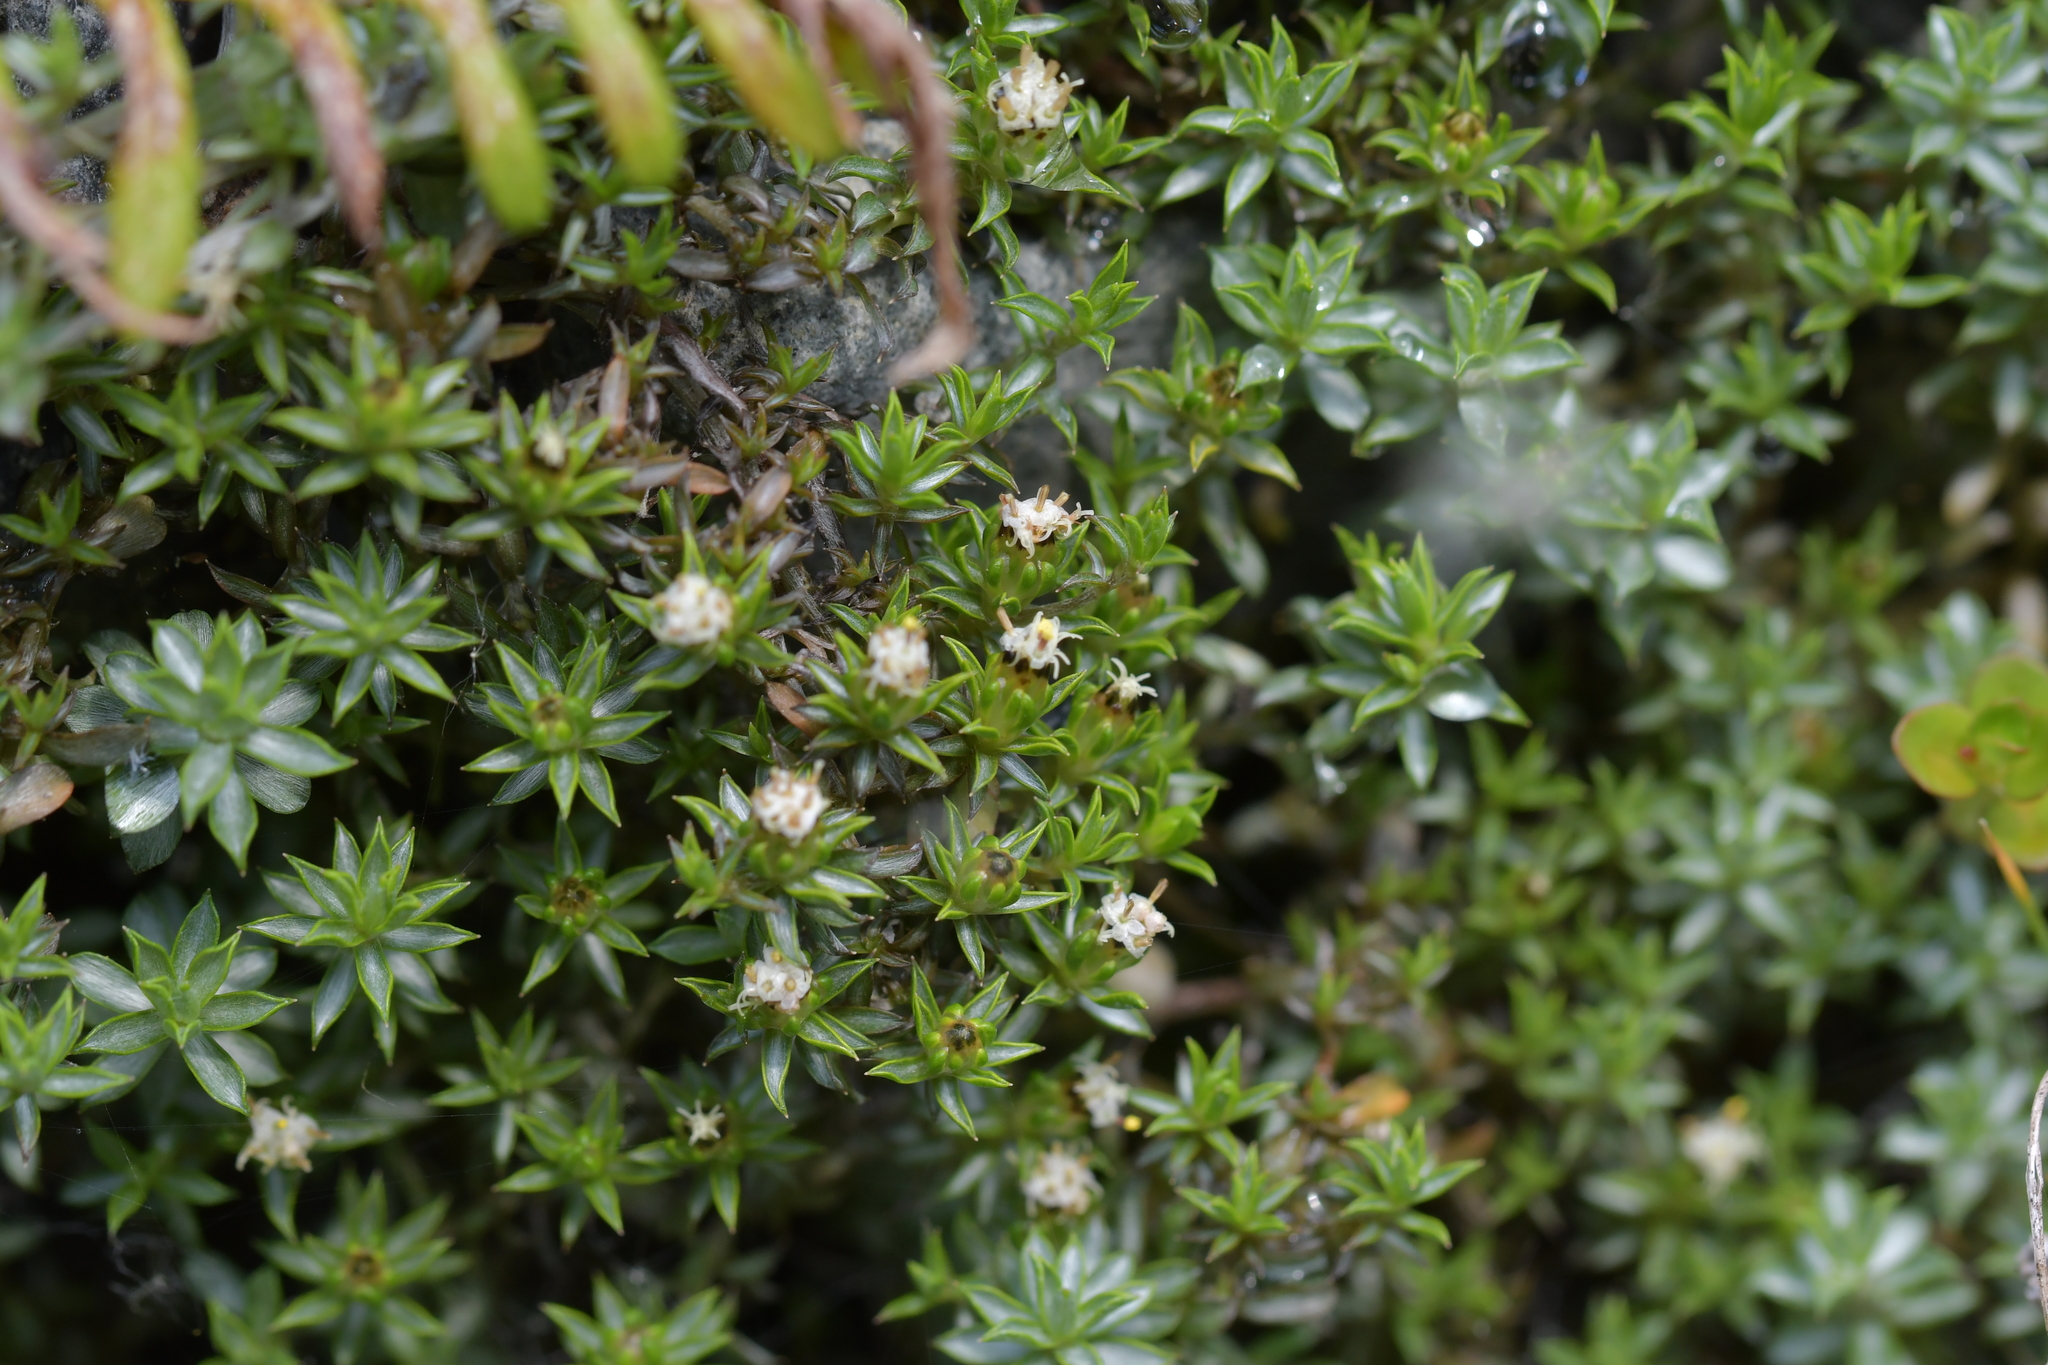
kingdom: Plantae
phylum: Tracheophyta
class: Magnoliopsida
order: Asterales
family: Asteraceae
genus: Raoulia
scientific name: Raoulia tenuicaulis
